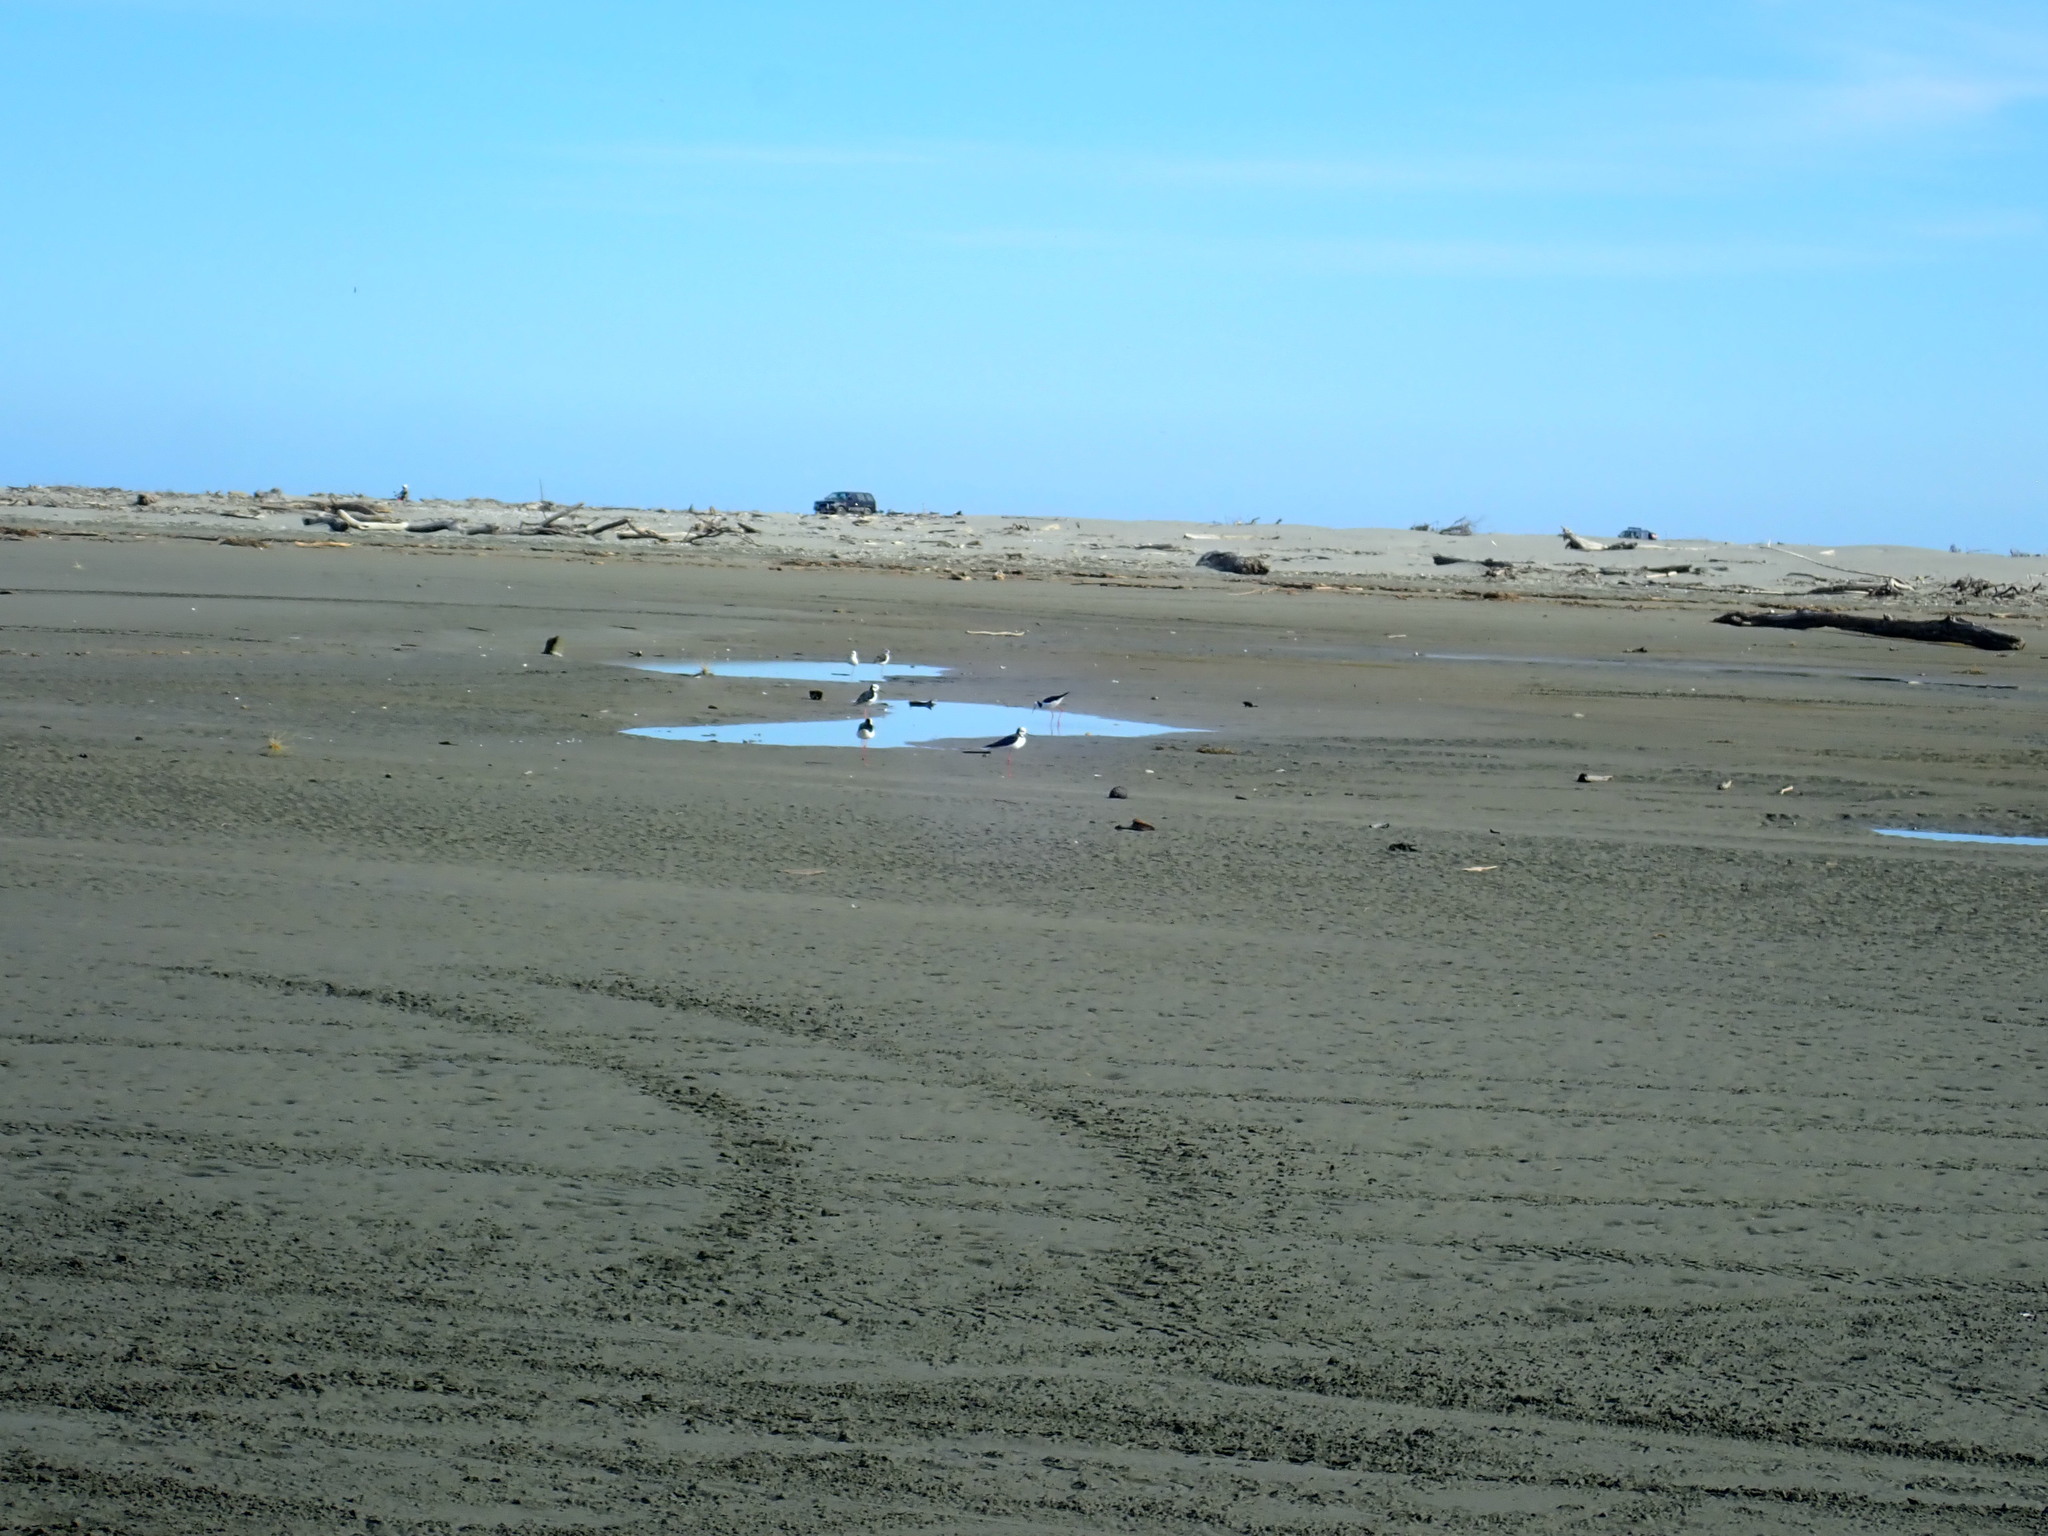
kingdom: Animalia
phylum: Chordata
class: Aves
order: Charadriiformes
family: Recurvirostridae
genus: Himantopus
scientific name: Himantopus leucocephalus
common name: White-headed stilt
